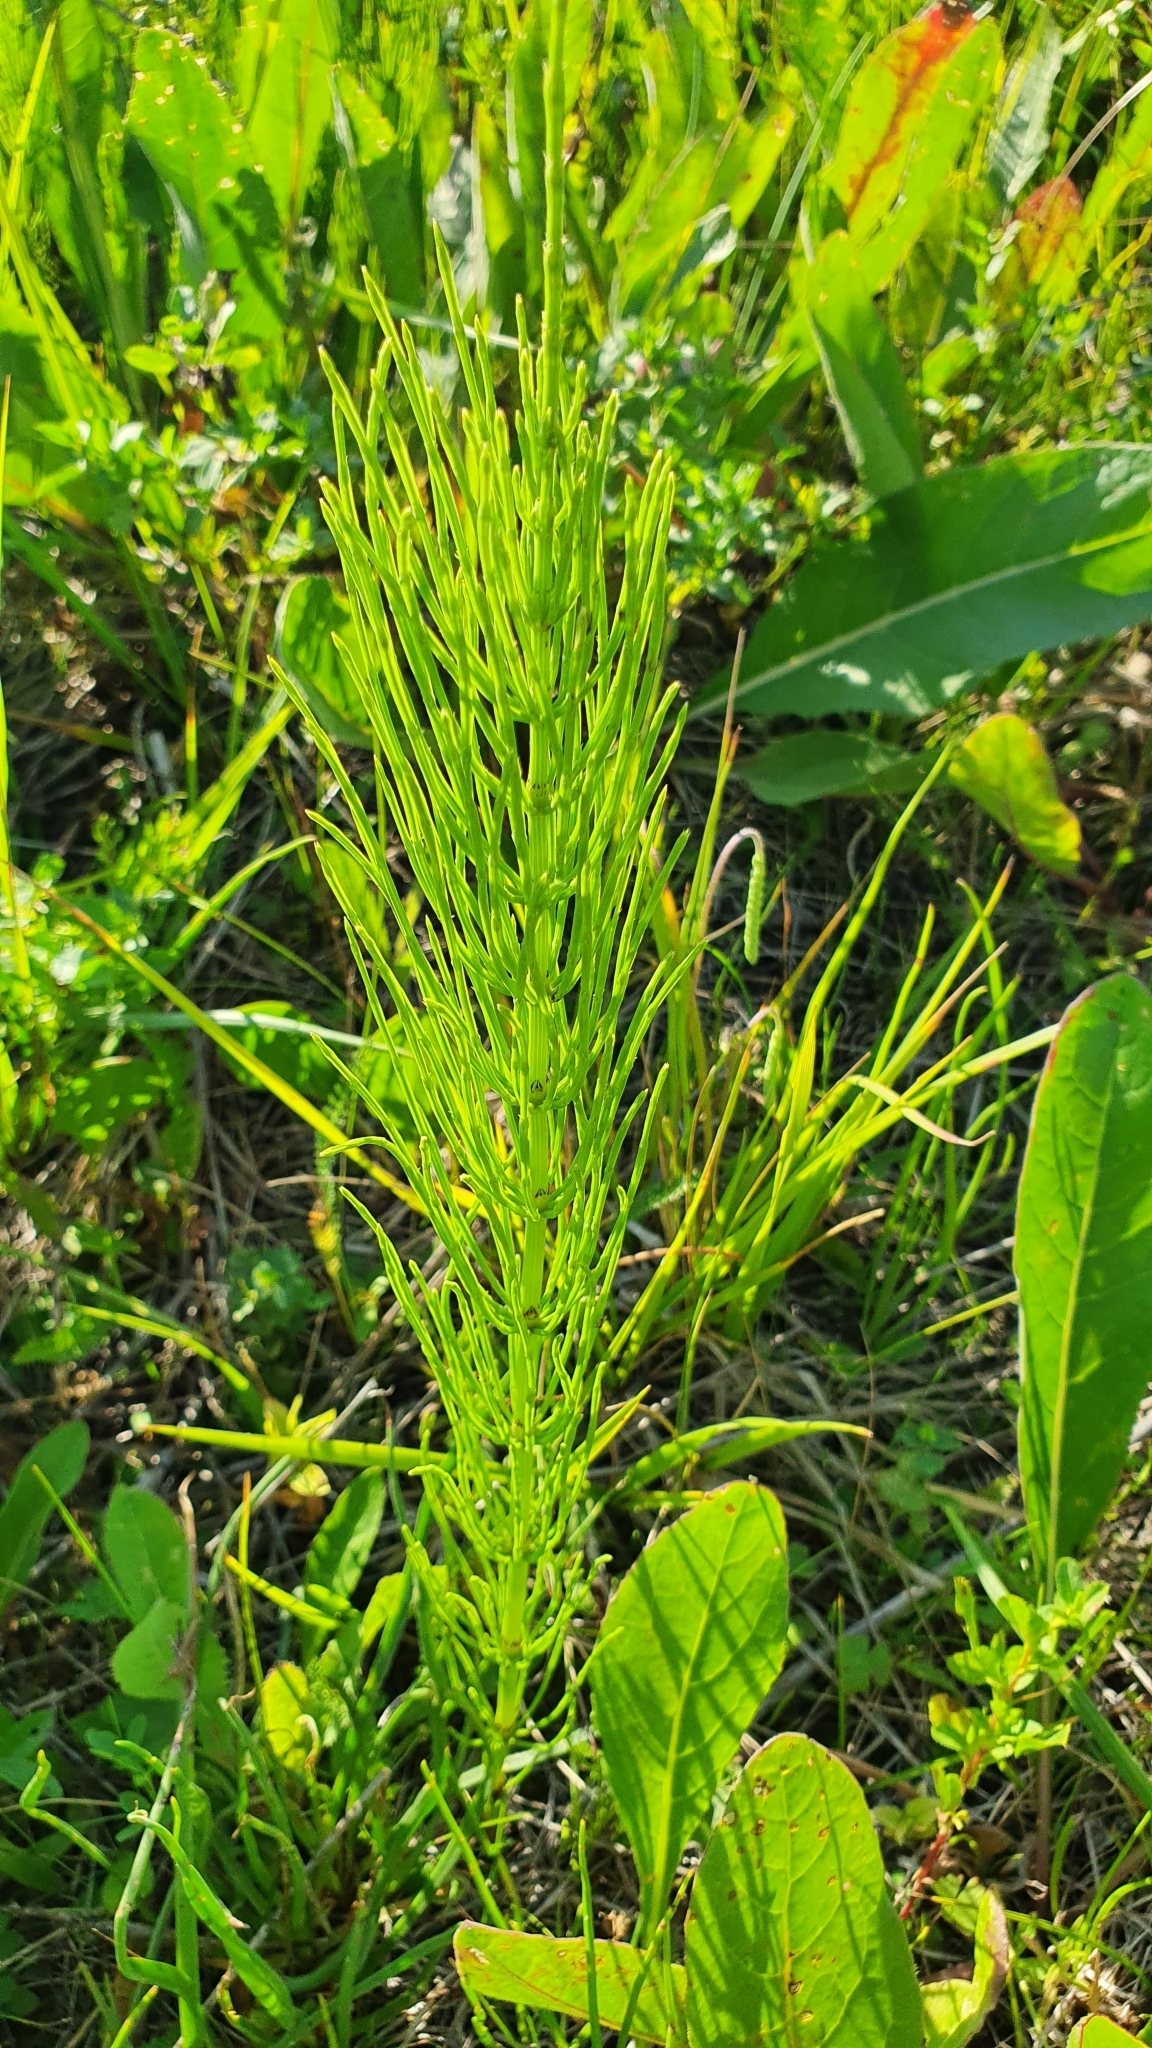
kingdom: Plantae
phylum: Tracheophyta
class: Polypodiopsida
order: Equisetales
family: Equisetaceae
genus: Equisetum
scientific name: Equisetum arvense
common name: Field horsetail
